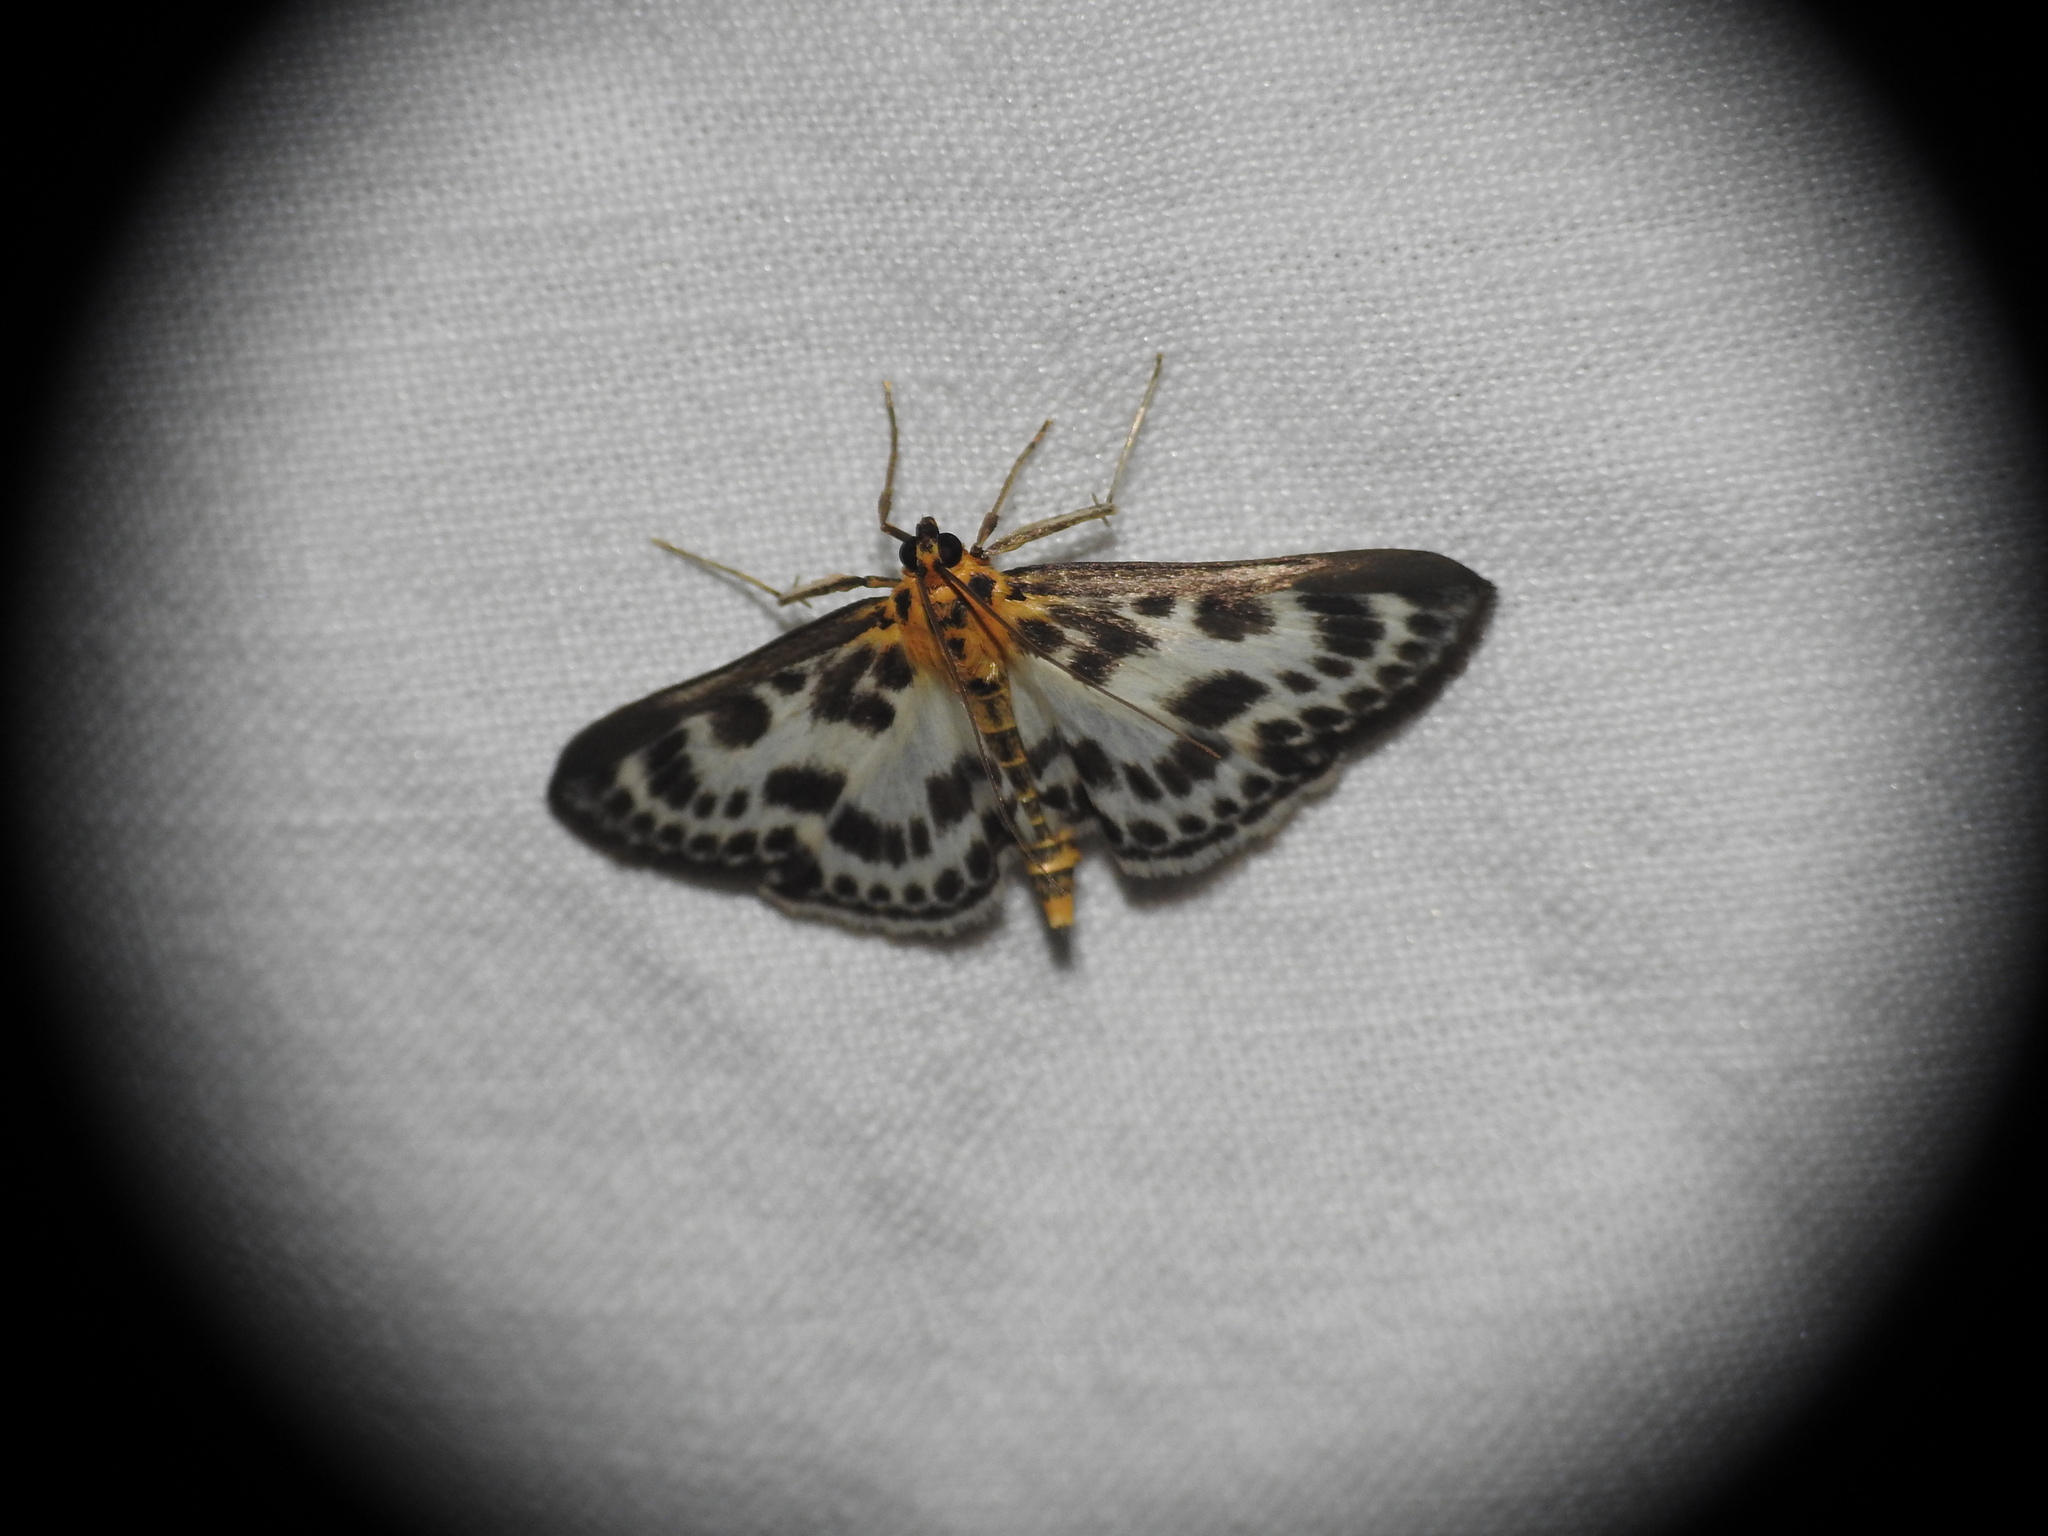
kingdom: Animalia
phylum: Arthropoda
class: Insecta
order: Lepidoptera
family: Crambidae
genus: Anania
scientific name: Anania hortulata
